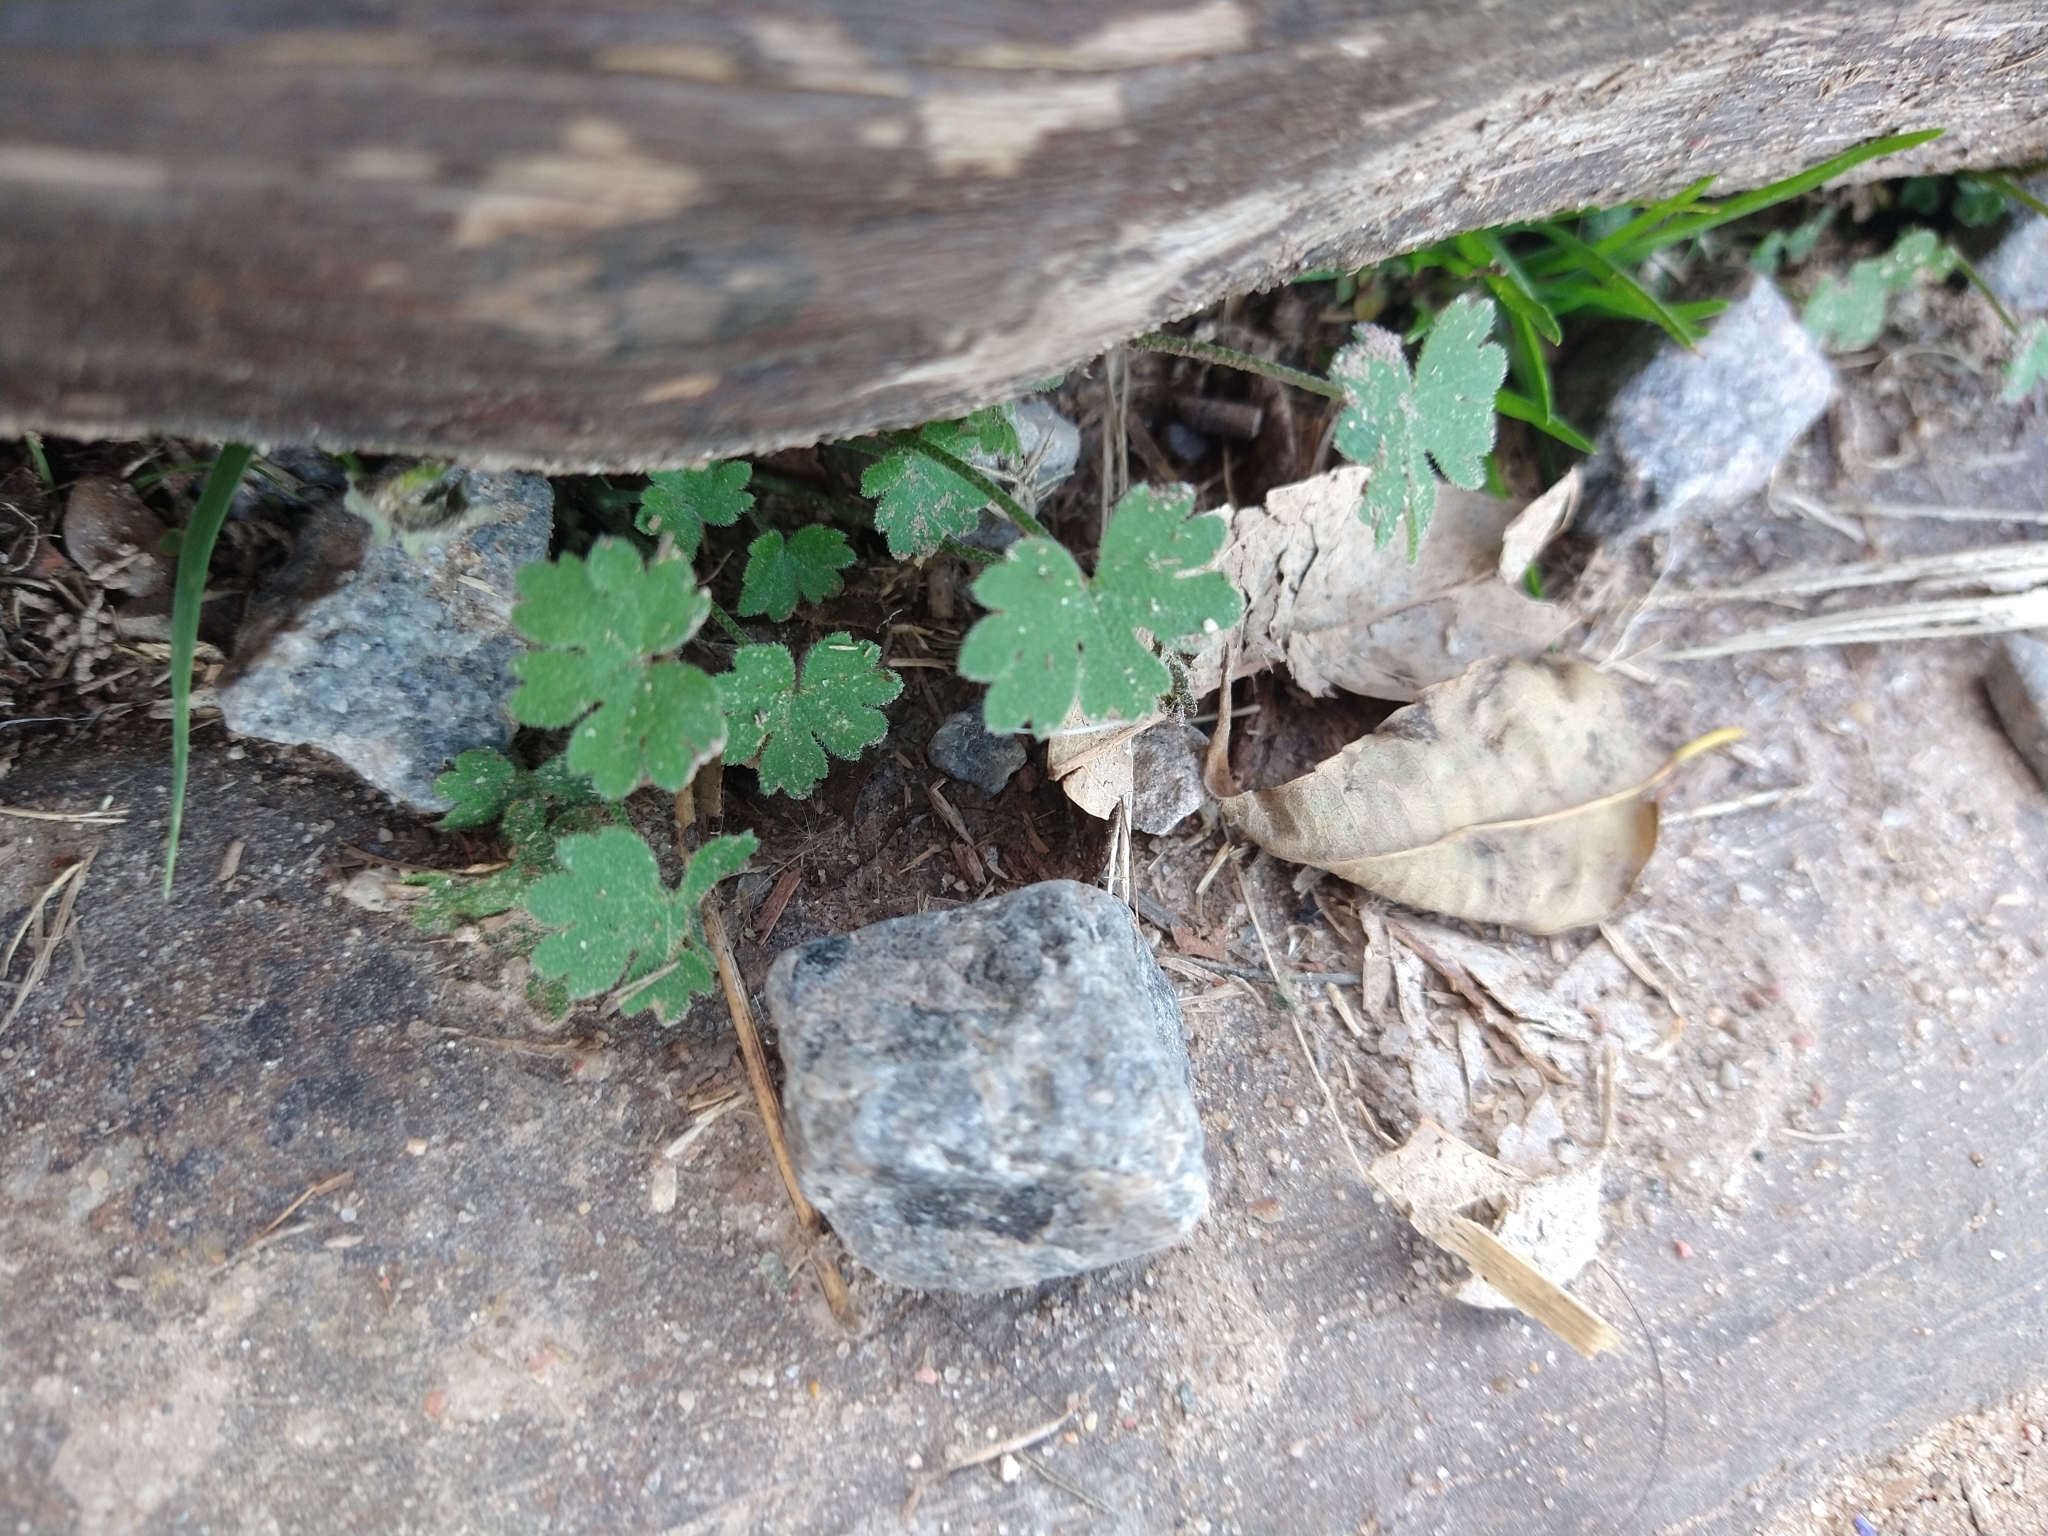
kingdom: Plantae
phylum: Tracheophyta
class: Magnoliopsida
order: Apiales
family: Apiaceae
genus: Bowlesia
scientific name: Bowlesia incana
